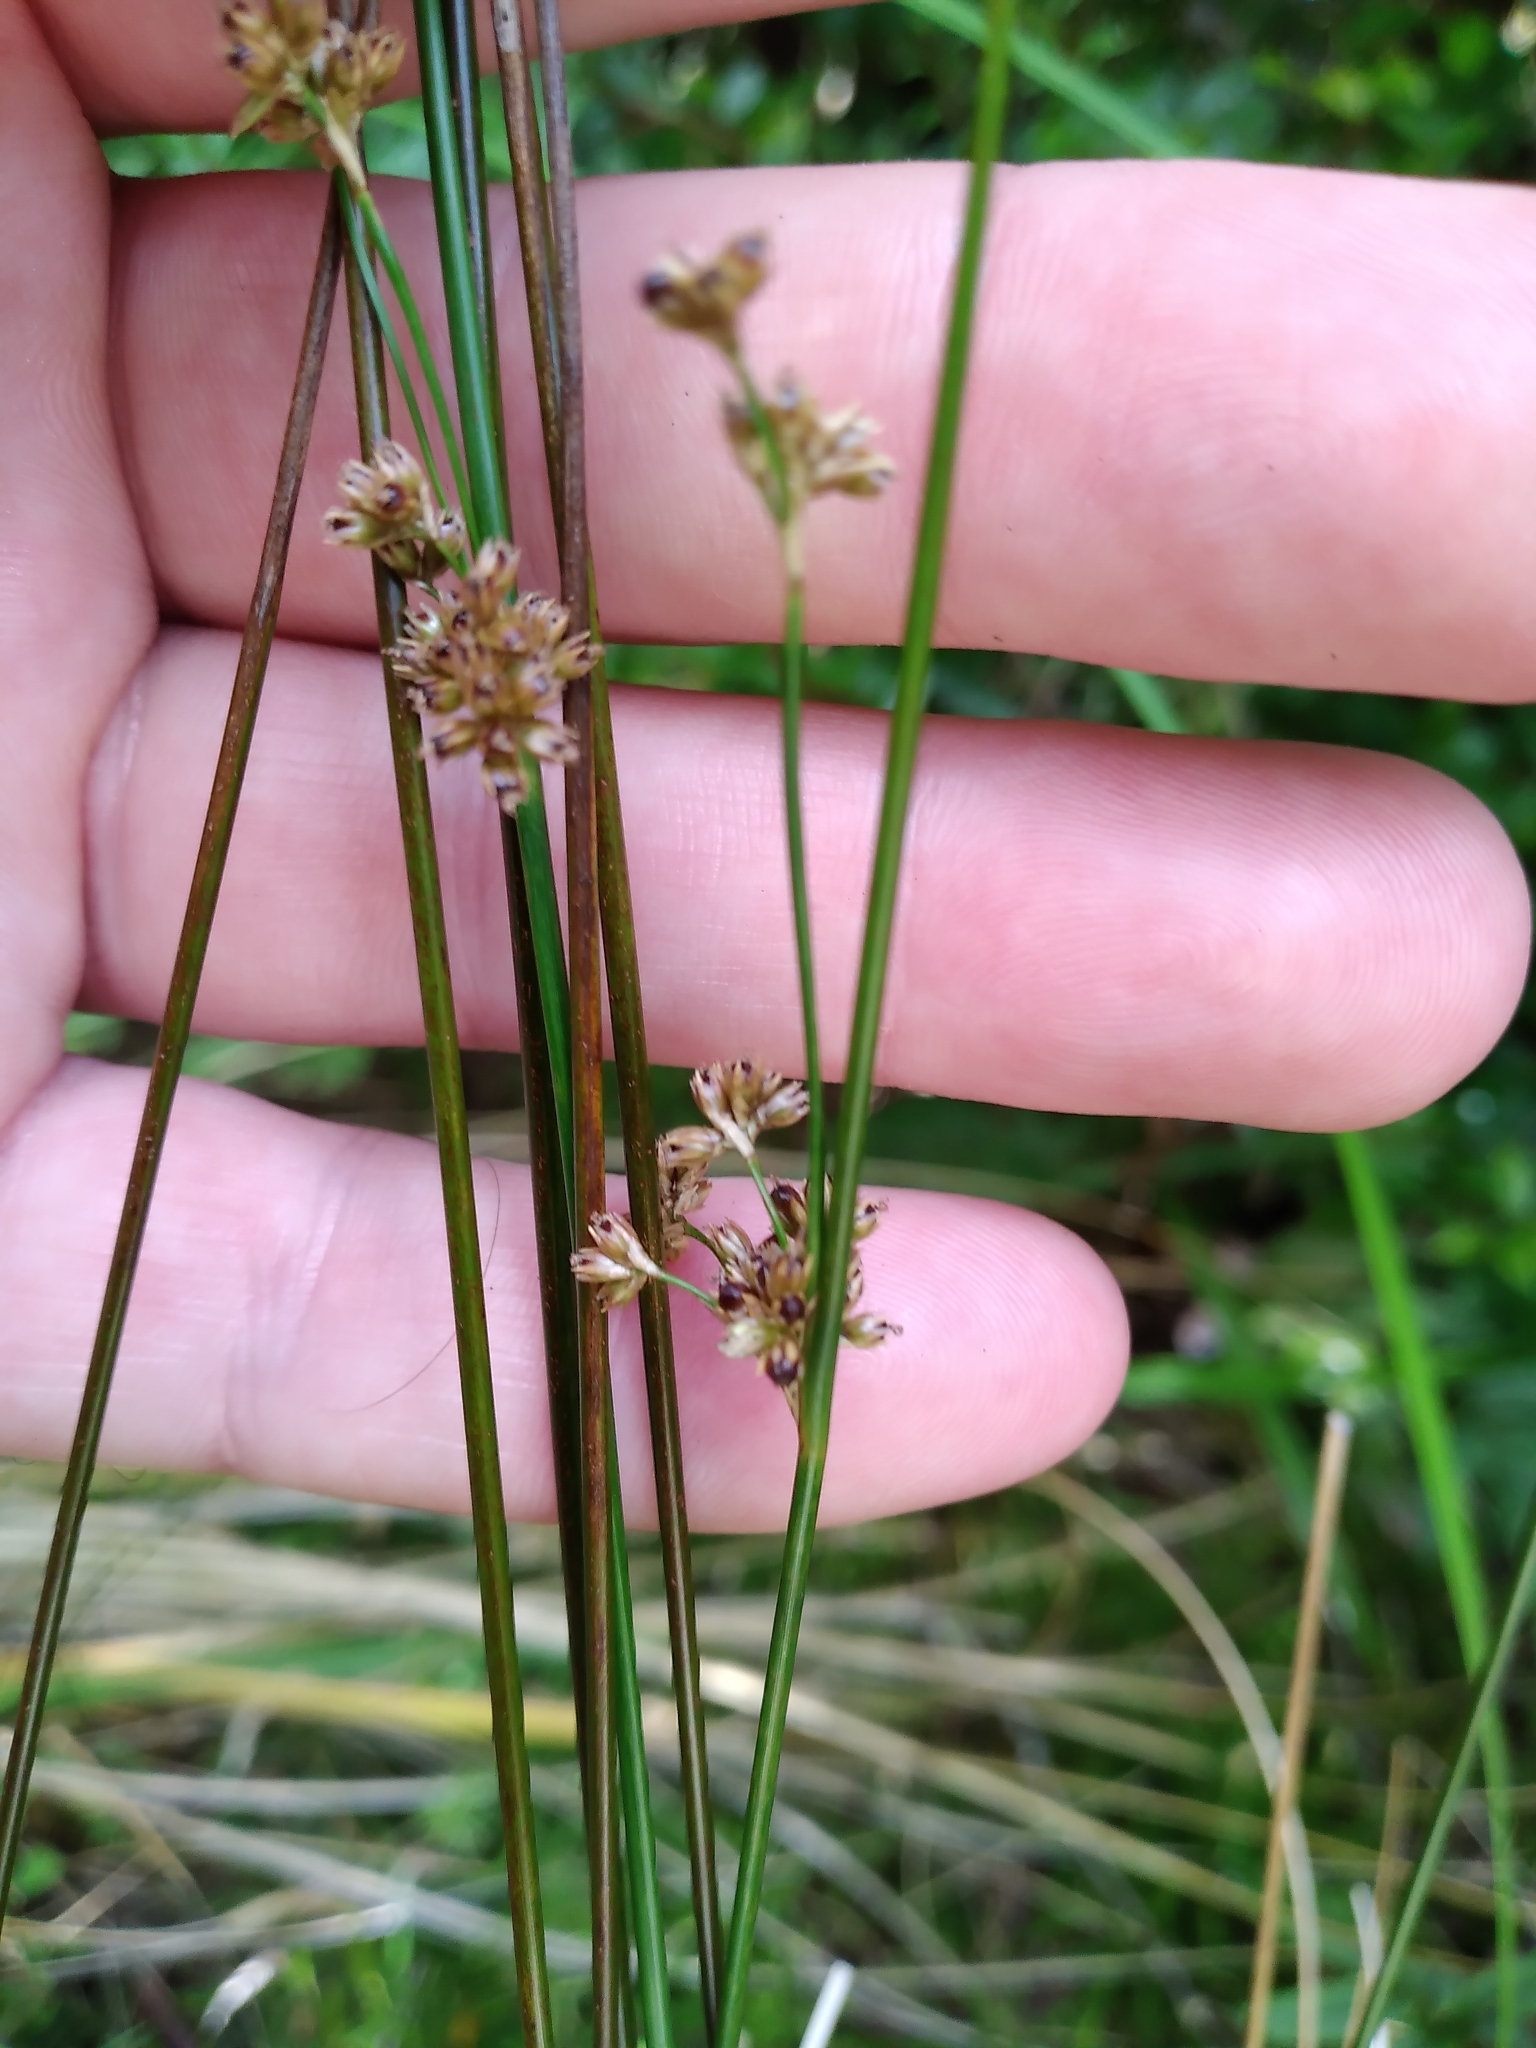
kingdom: Plantae
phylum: Tracheophyta
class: Liliopsida
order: Poales
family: Juncaceae
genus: Juncus
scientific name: Juncus distegus
